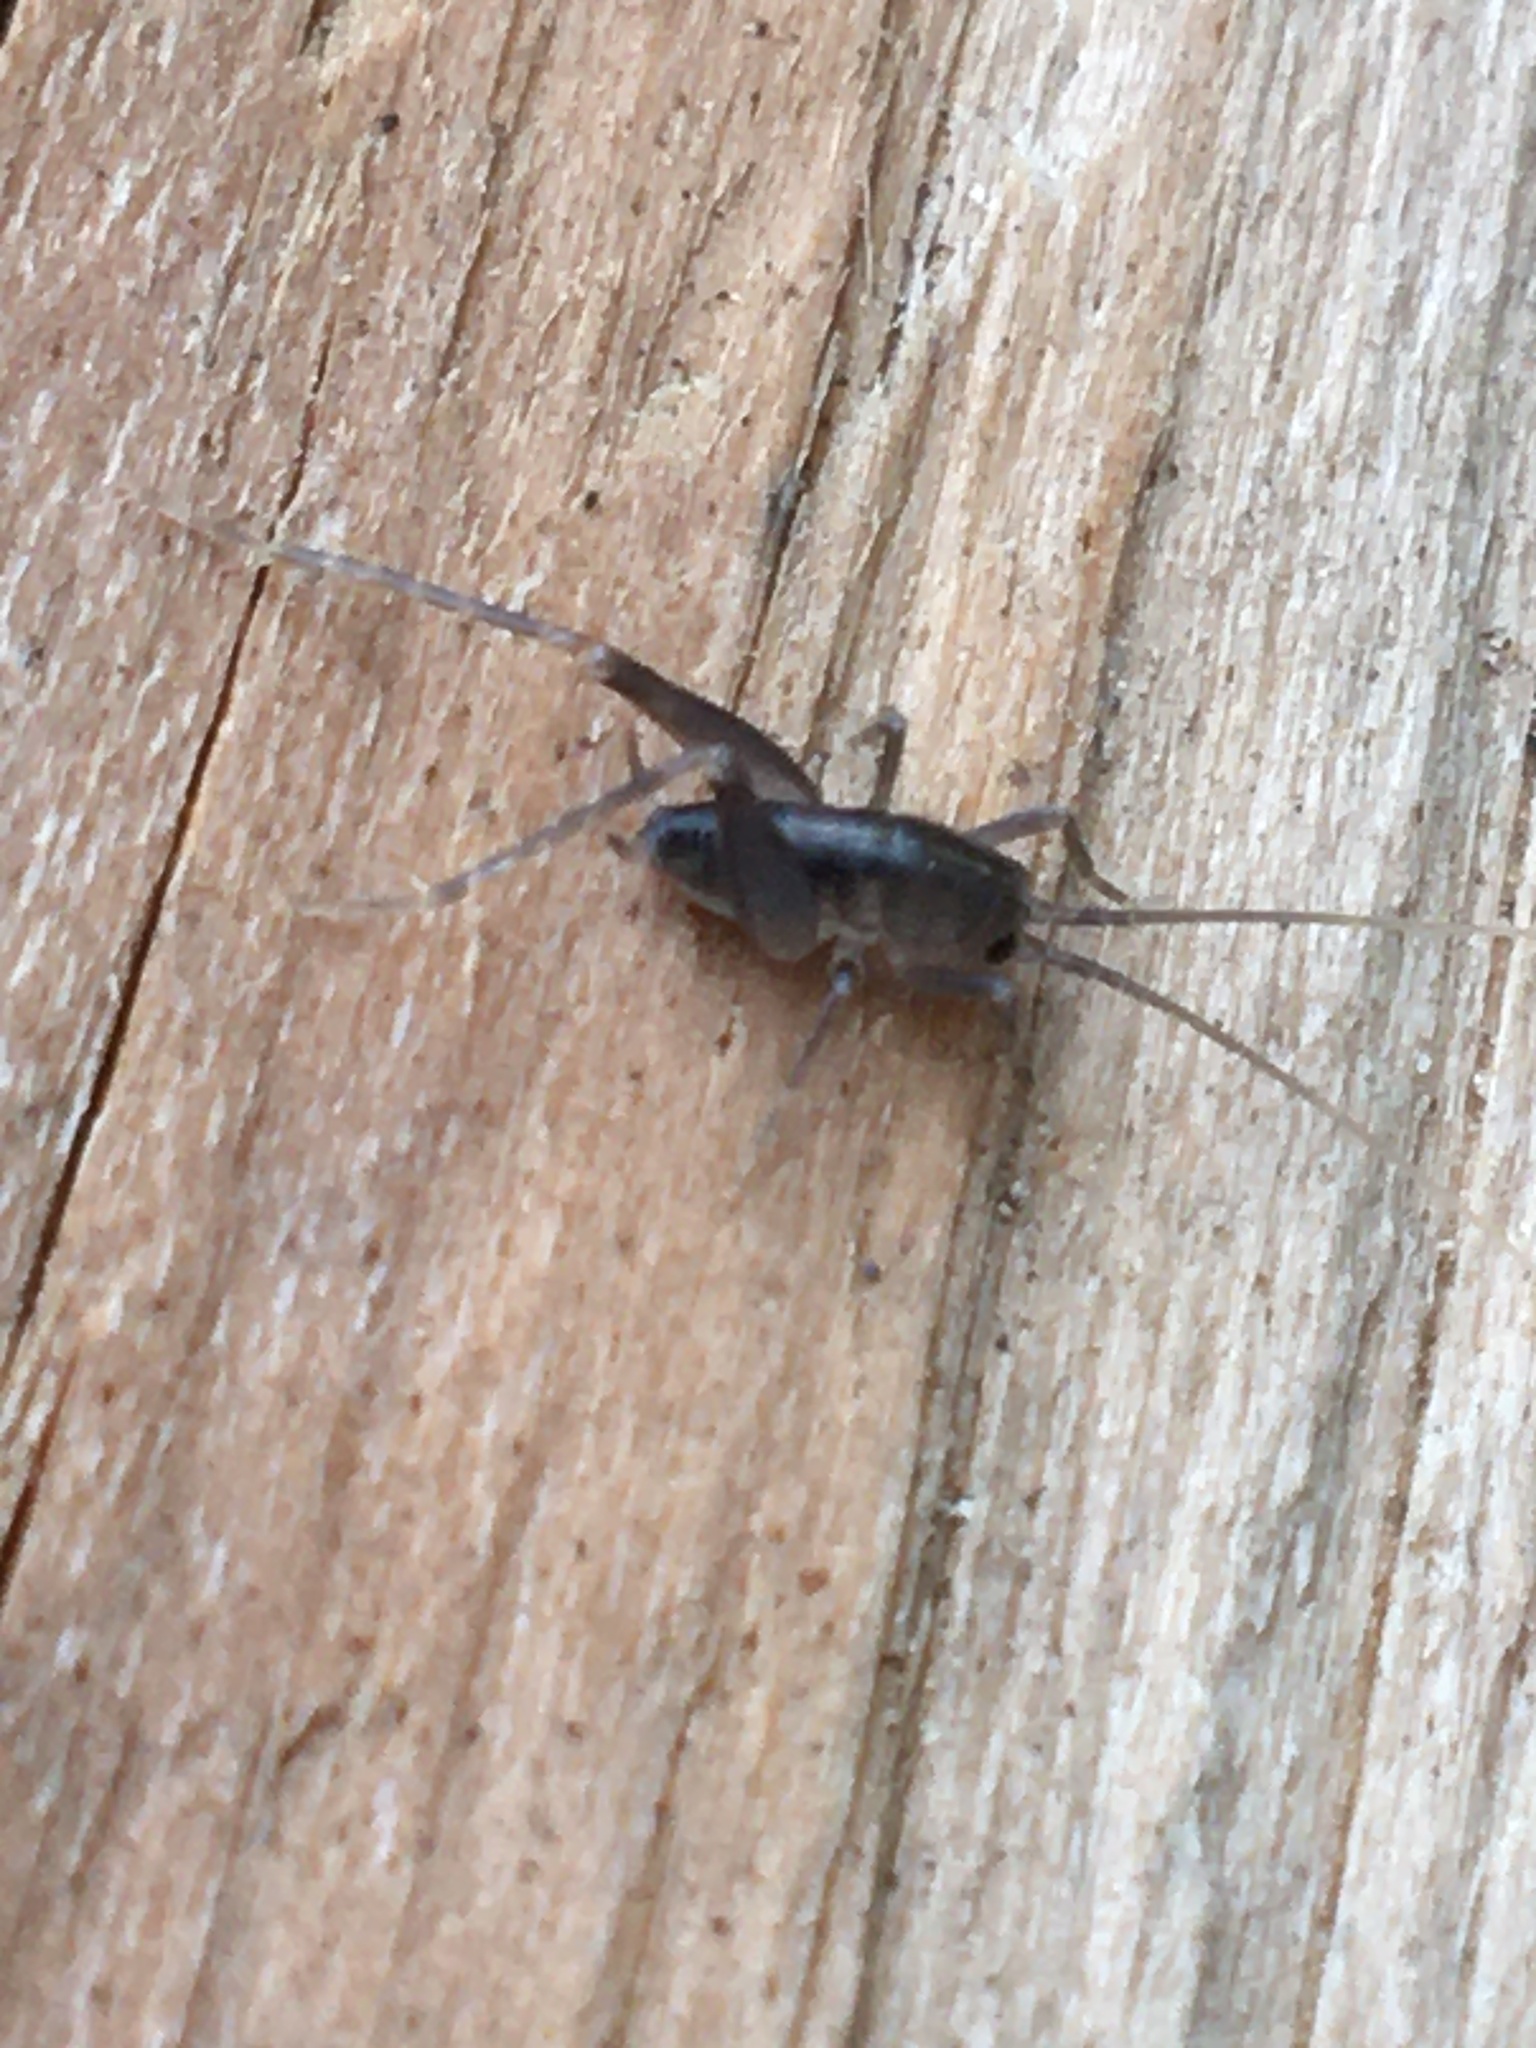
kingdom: Animalia
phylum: Arthropoda
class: Insecta
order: Orthoptera
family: Rhaphidophoridae
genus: Ceuthophilus
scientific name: Ceuthophilus
